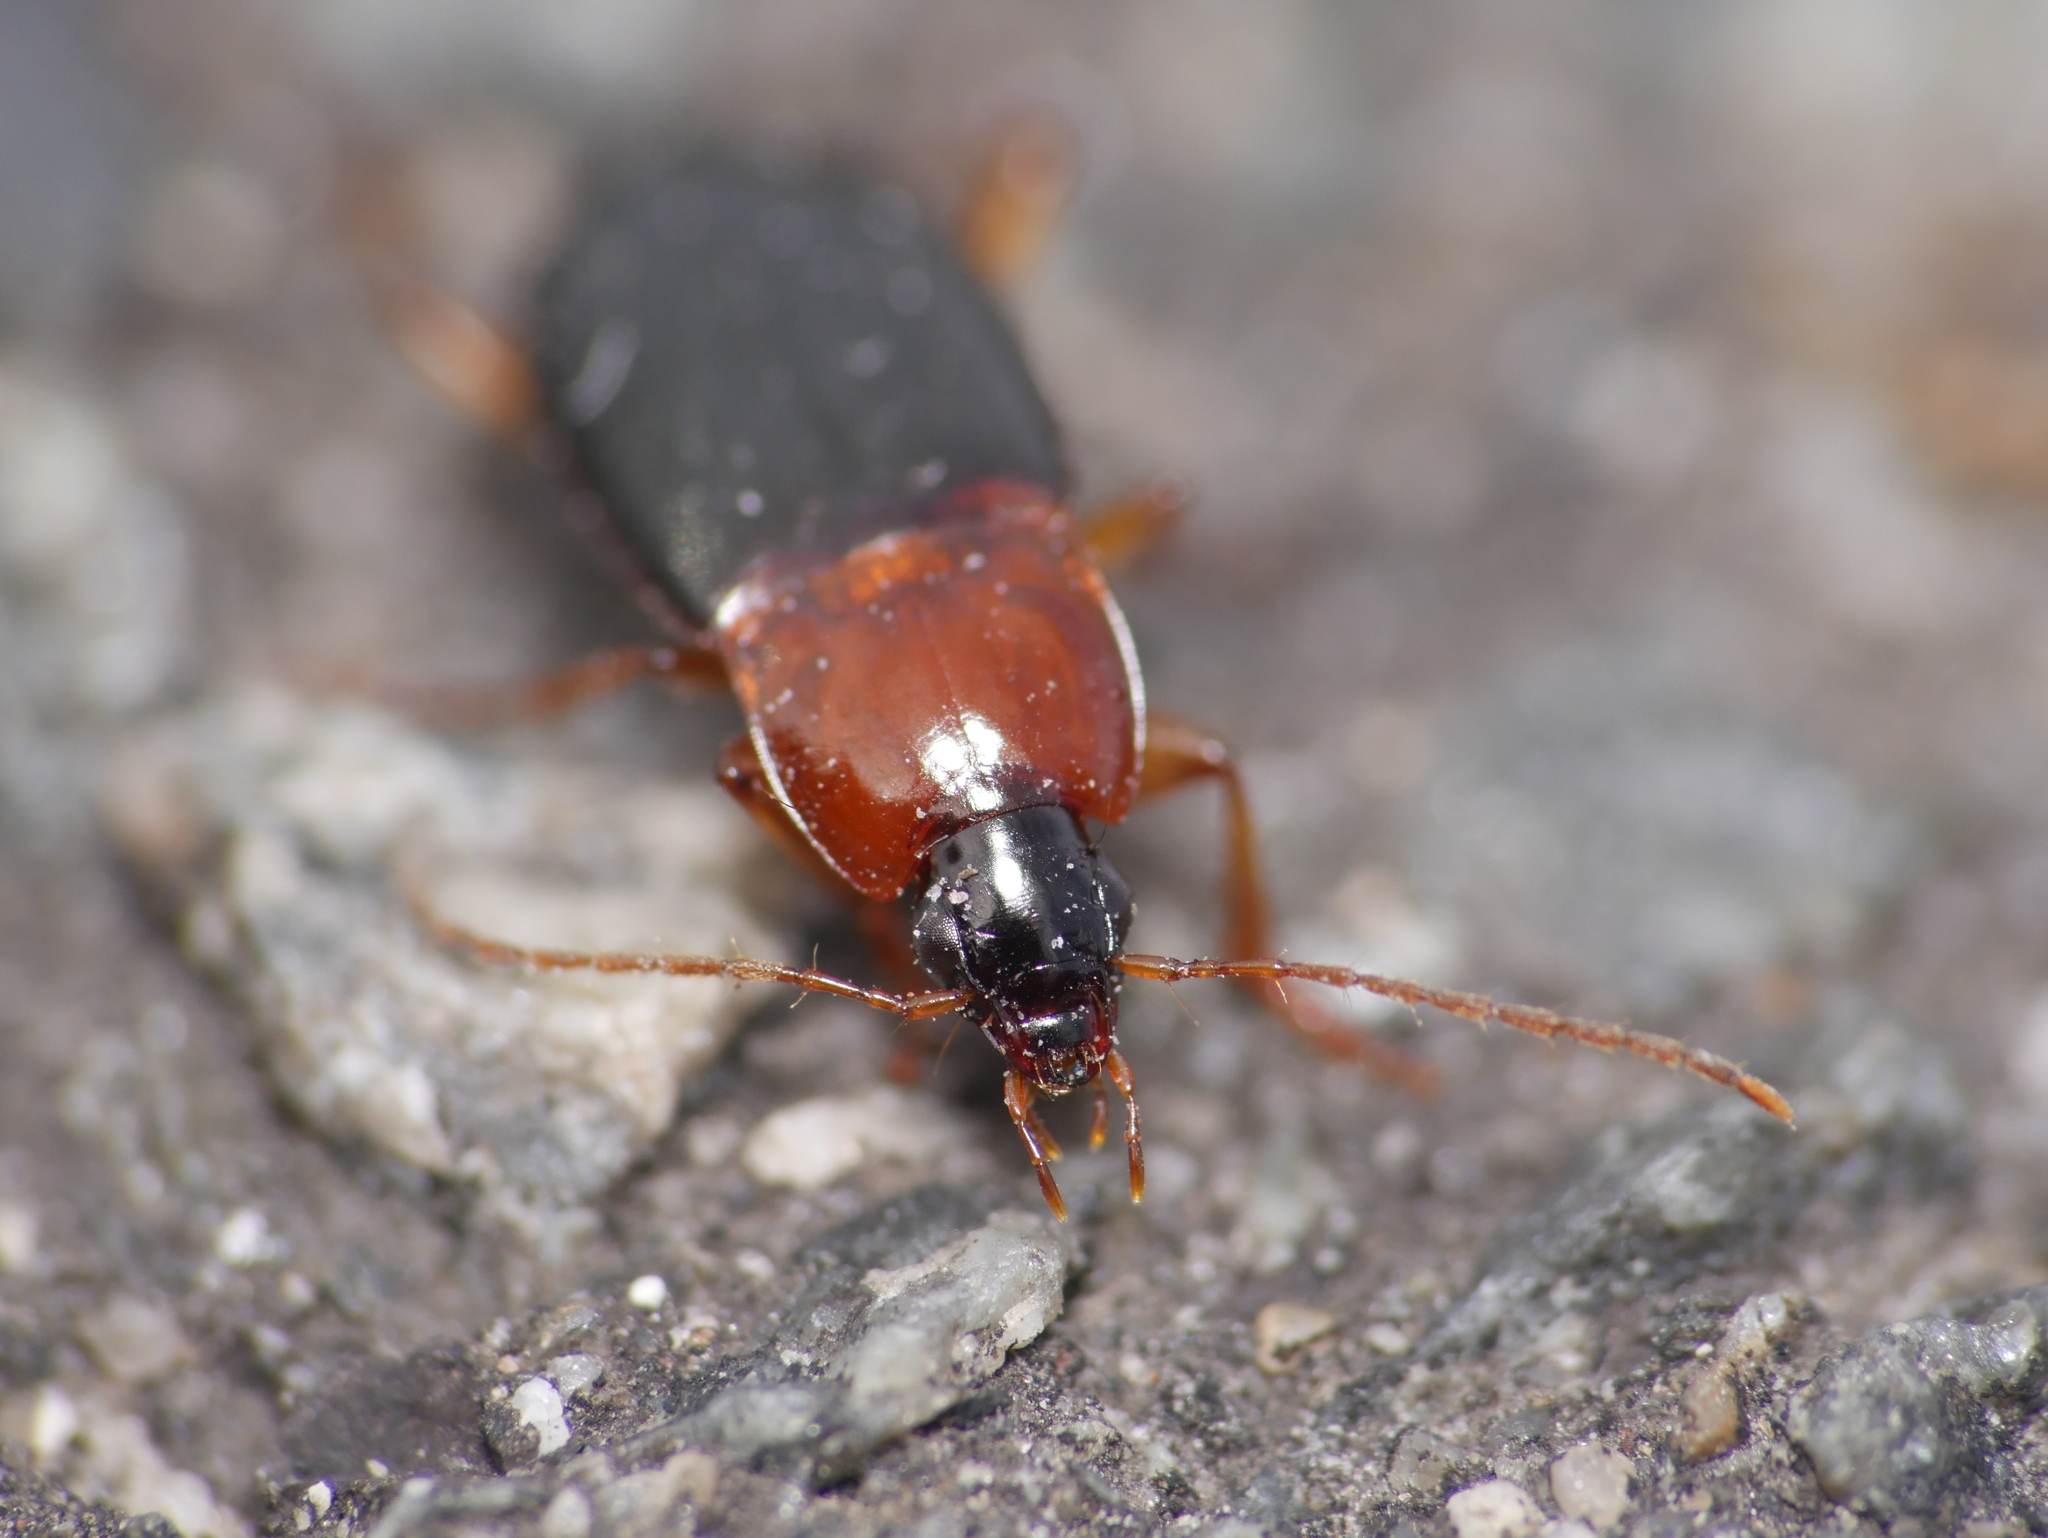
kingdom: Animalia
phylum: Arthropoda
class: Insecta
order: Coleoptera
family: Carabidae
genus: Calathus
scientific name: Calathus melanocephalus
